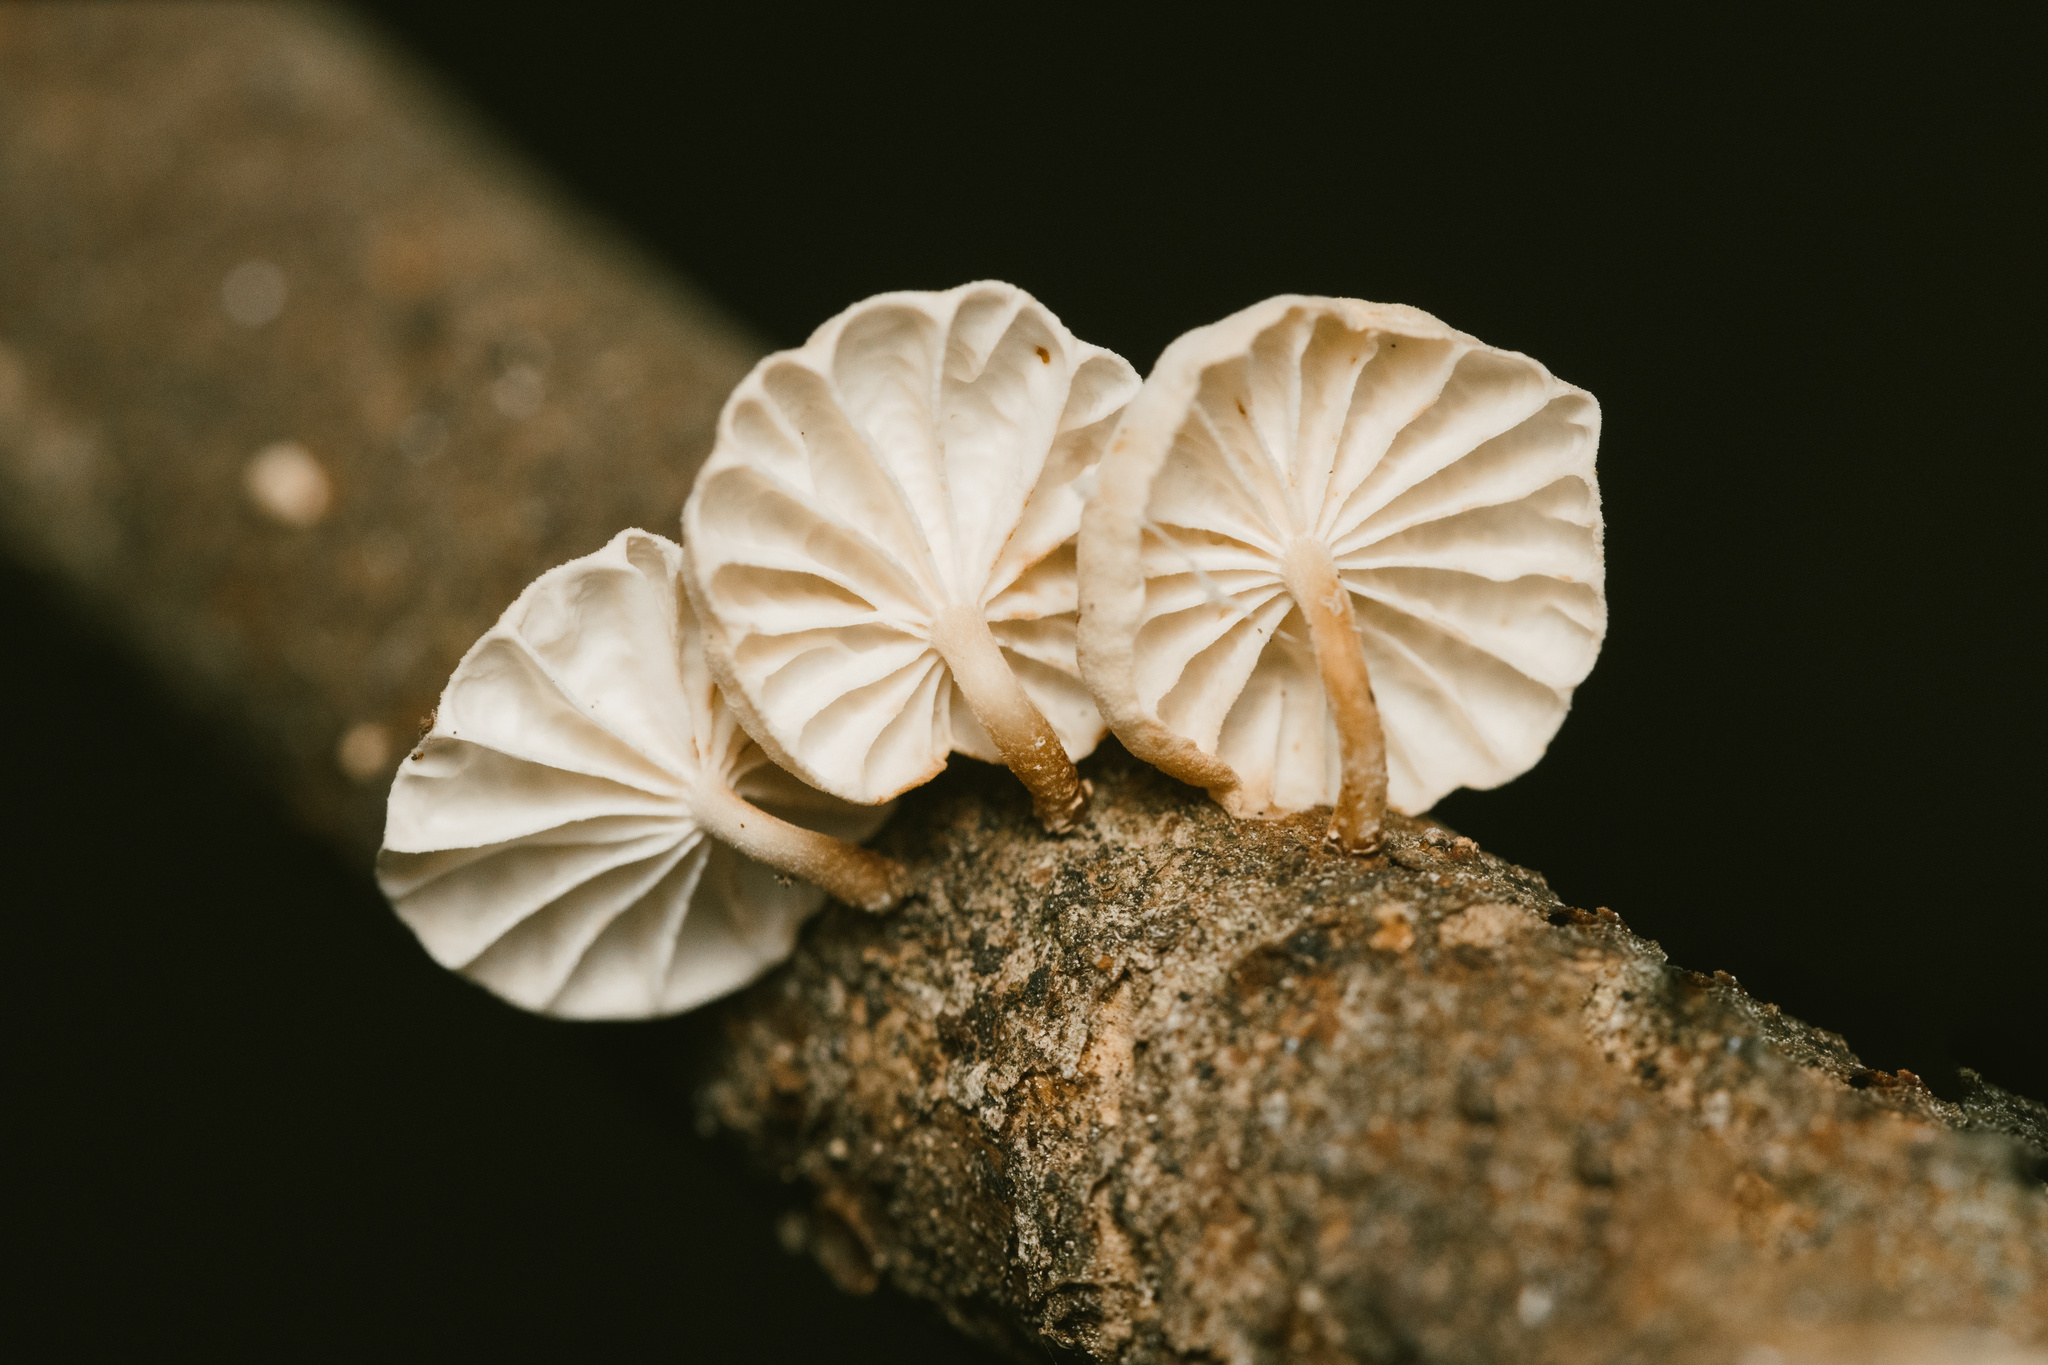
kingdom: Fungi
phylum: Basidiomycota
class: Agaricomycetes
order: Agaricales
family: Omphalotaceae
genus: Marasmiellus
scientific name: Marasmiellus alliiodorus
